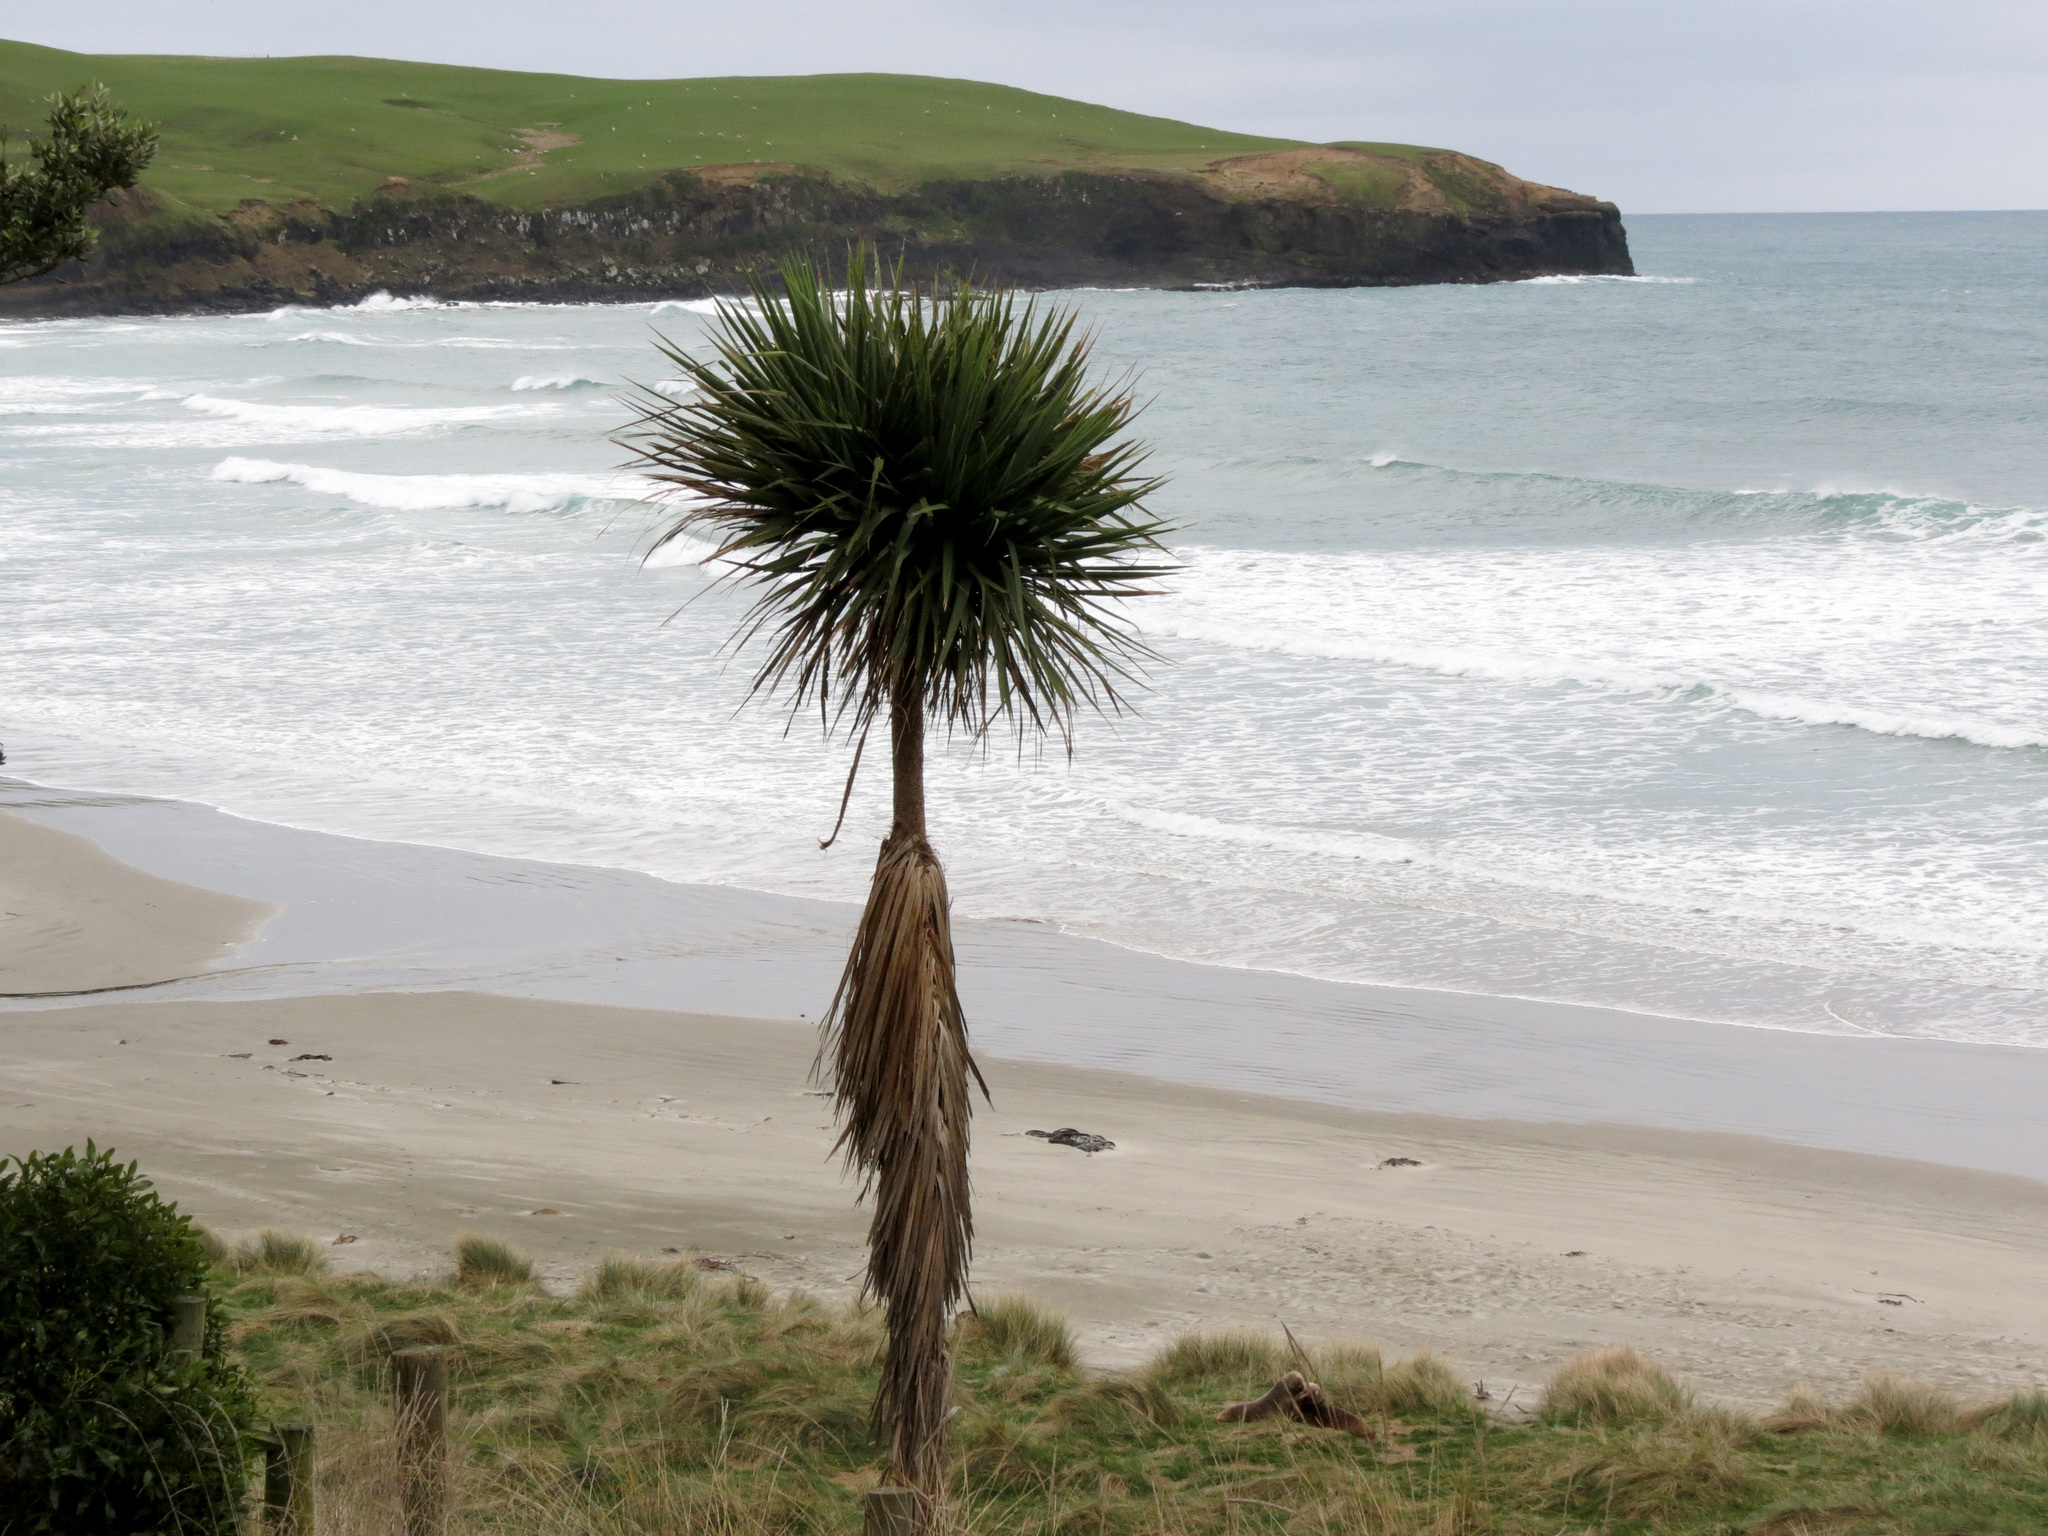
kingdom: Plantae
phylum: Tracheophyta
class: Liliopsida
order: Asparagales
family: Asparagaceae
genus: Cordyline
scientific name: Cordyline australis
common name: Cabbage-palm
